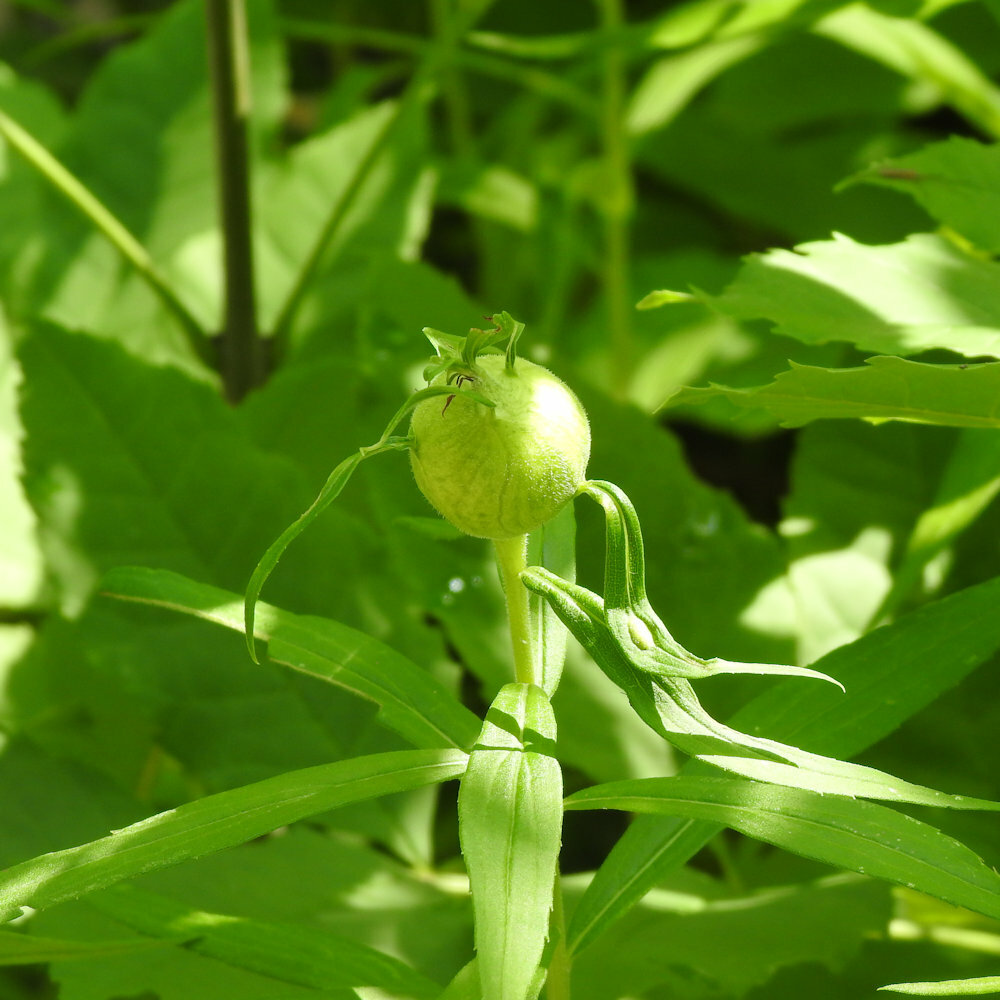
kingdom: Animalia
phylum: Arthropoda
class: Insecta
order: Diptera
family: Tephritidae
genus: Eurosta
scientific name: Eurosta solidaginis
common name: Goldenrod gall fly
